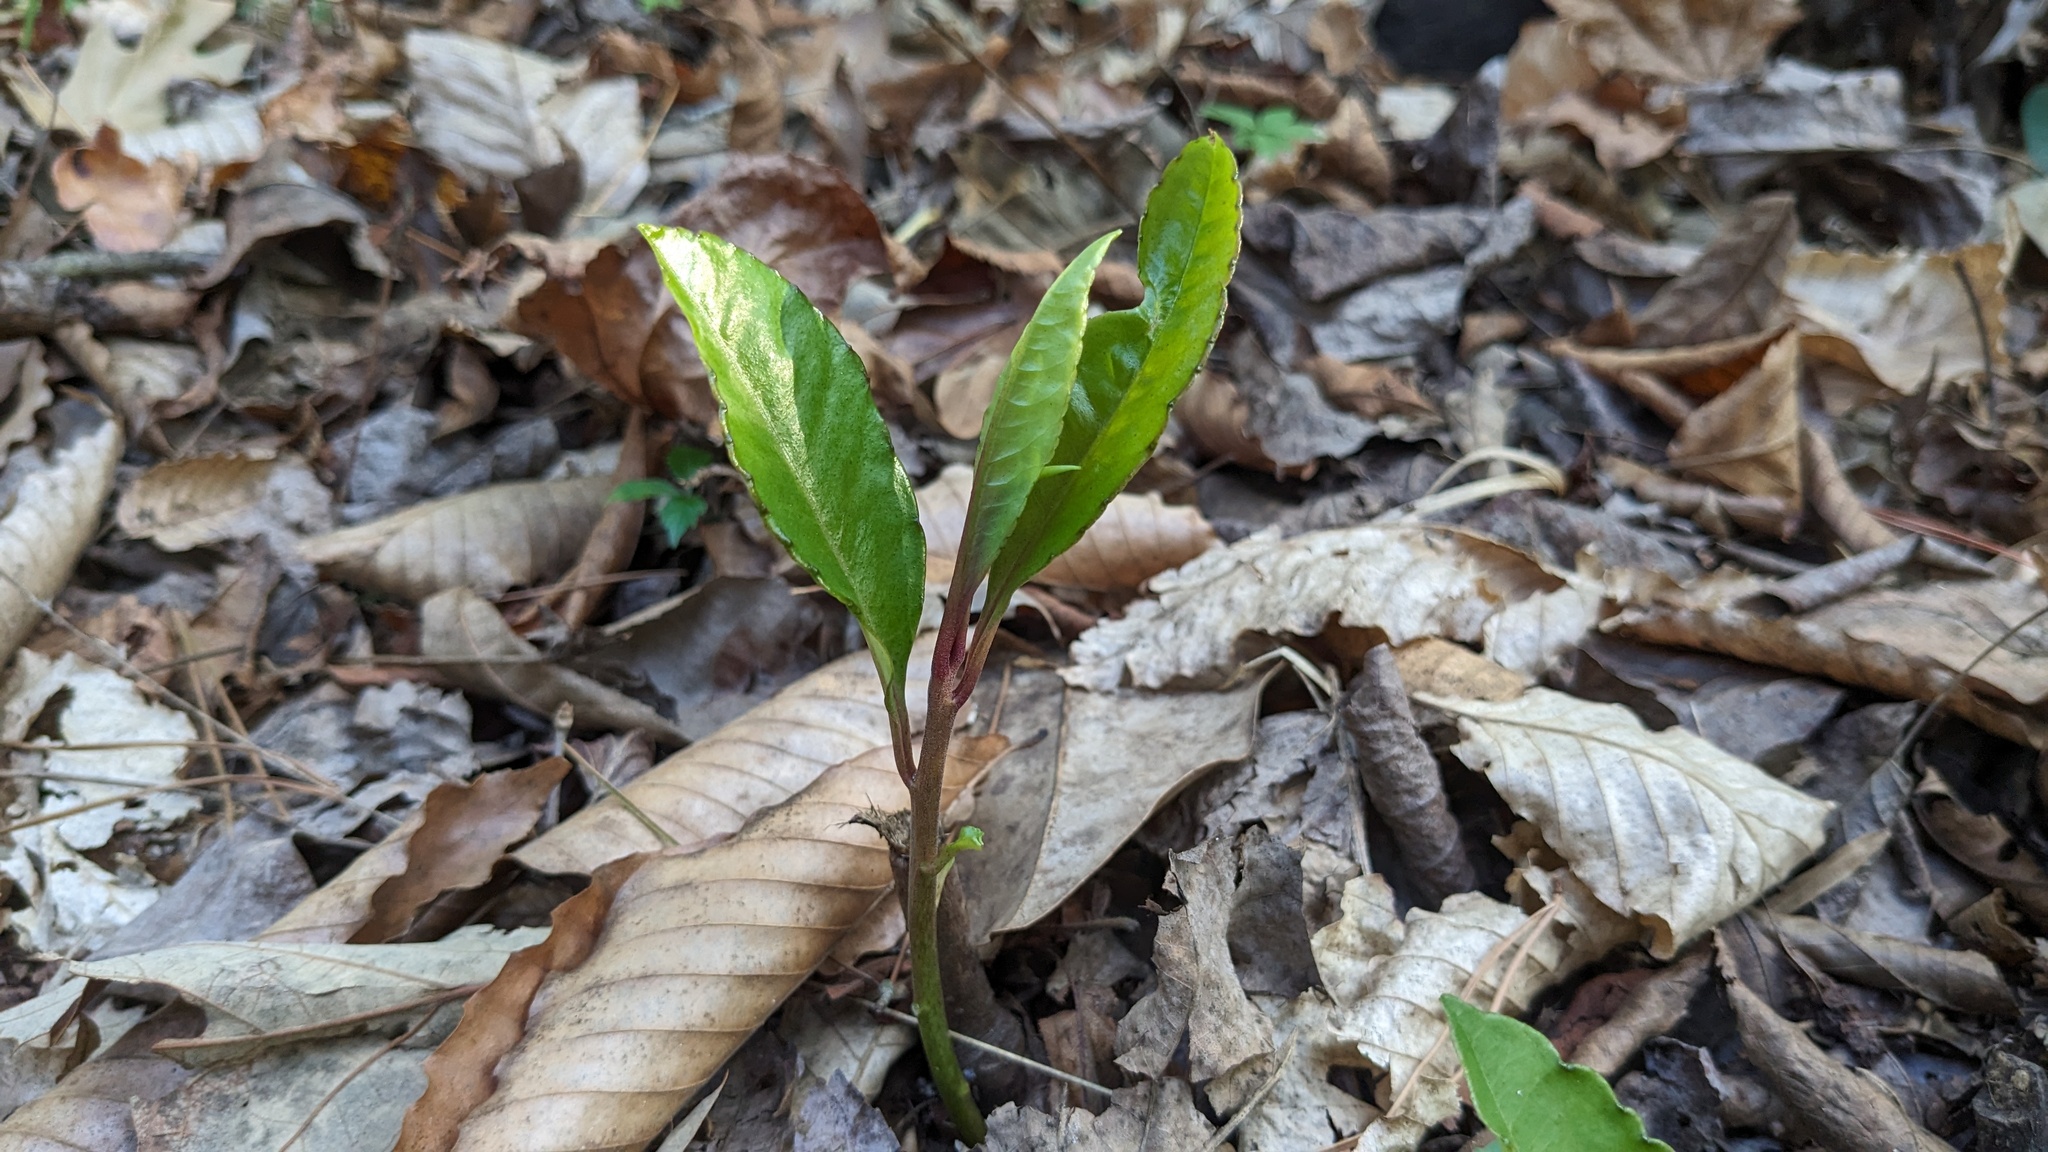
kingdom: Plantae
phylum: Tracheophyta
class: Magnoliopsida
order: Ericales
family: Primulaceae
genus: Ardisia
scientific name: Ardisia crenata
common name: Hen's eyes
